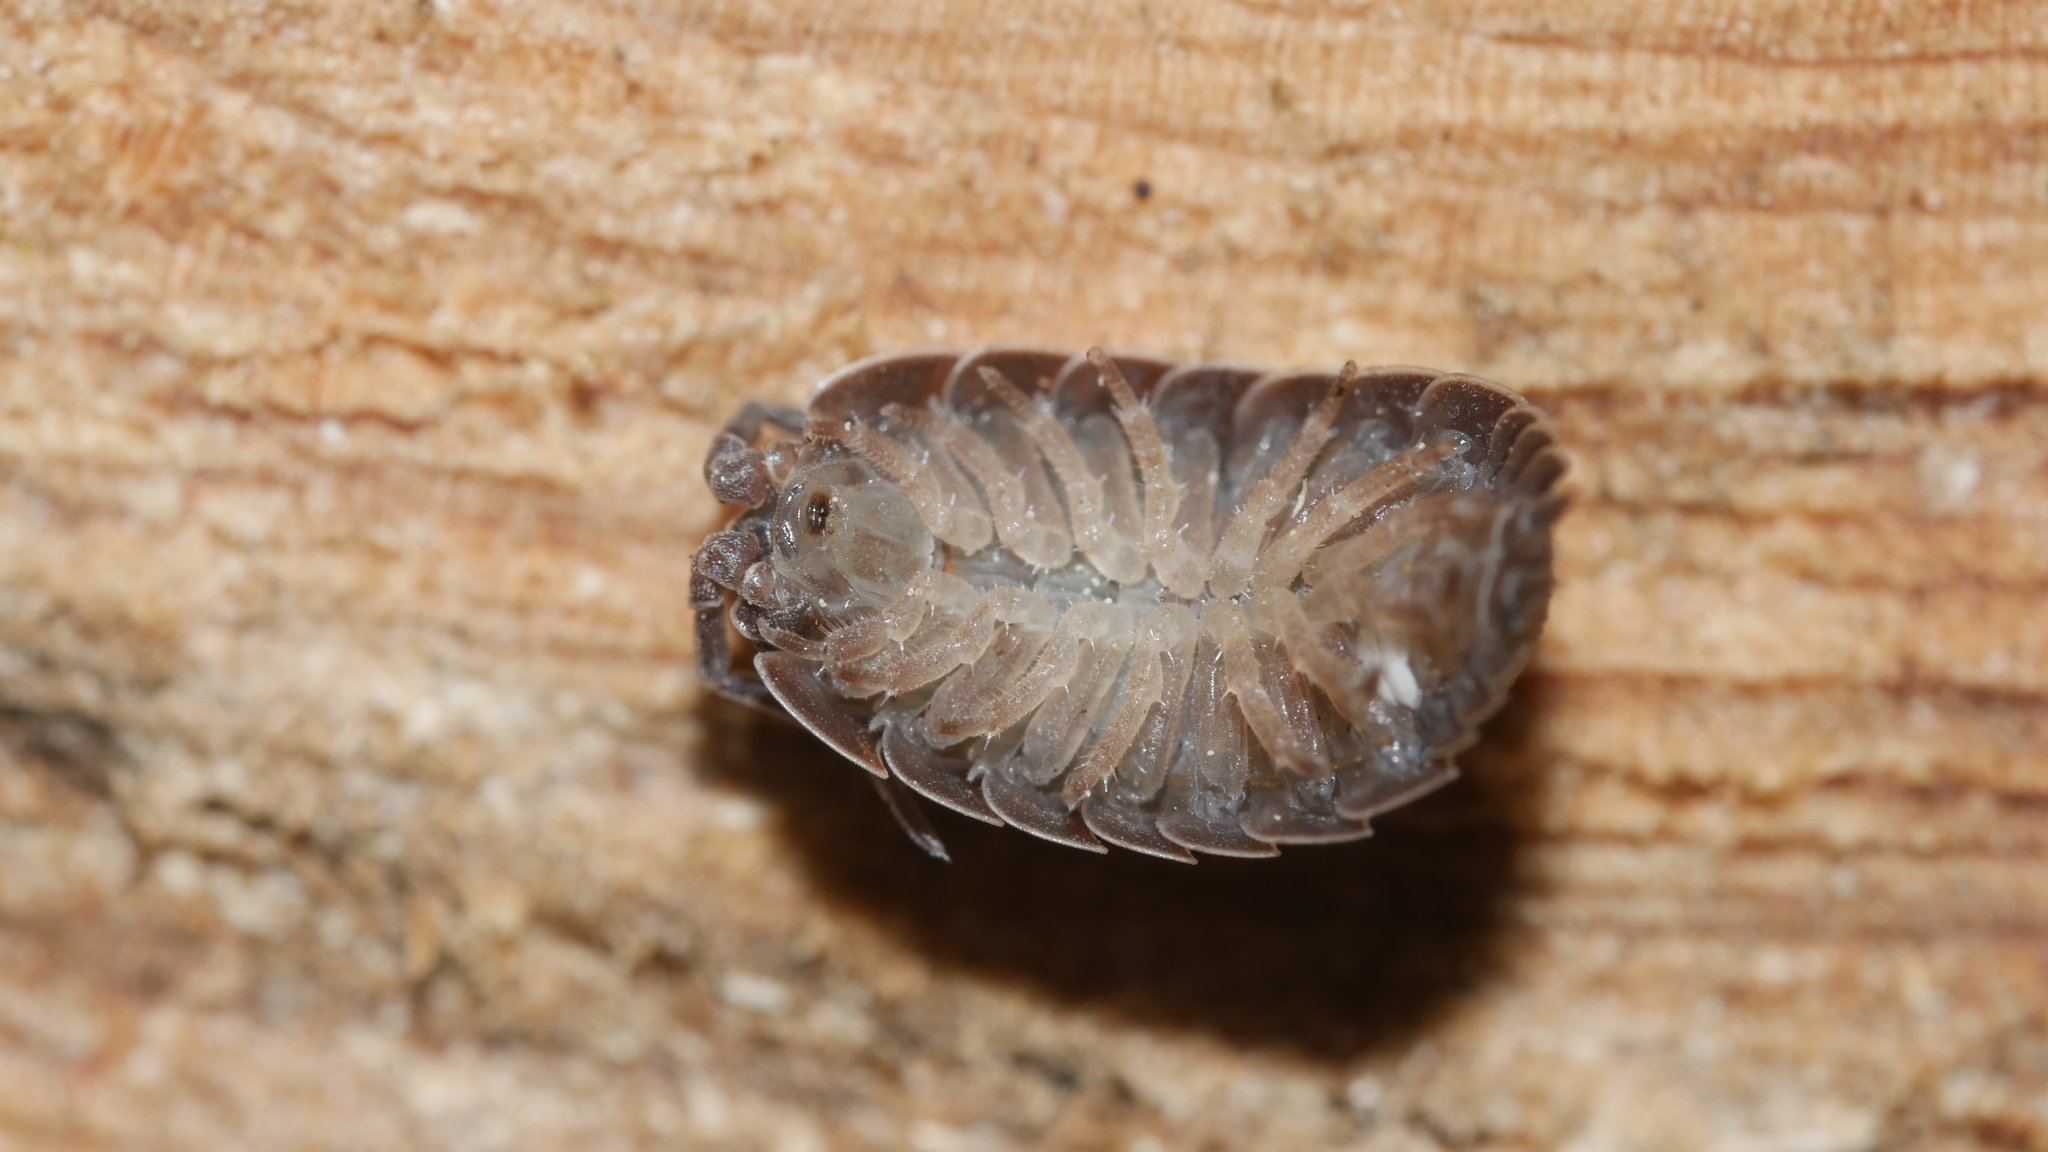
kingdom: Animalia
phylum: Arthropoda
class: Malacostraca
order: Isopoda
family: Porcellionidae
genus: Porcellio
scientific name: Porcellio scaber
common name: Common rough woodlouse
